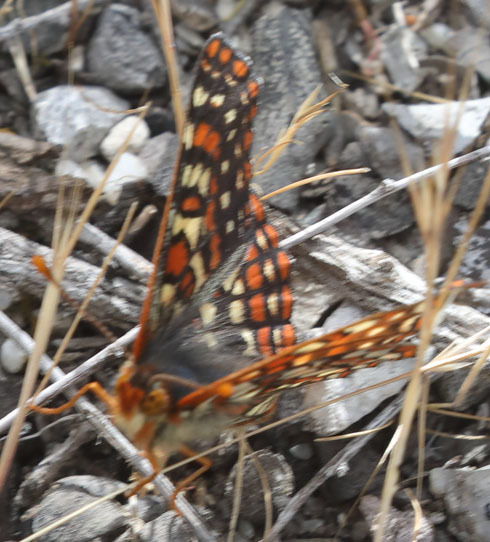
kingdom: Animalia
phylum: Arthropoda
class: Insecta
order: Lepidoptera
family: Nymphalidae
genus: Occidryas
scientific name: Occidryas editha
